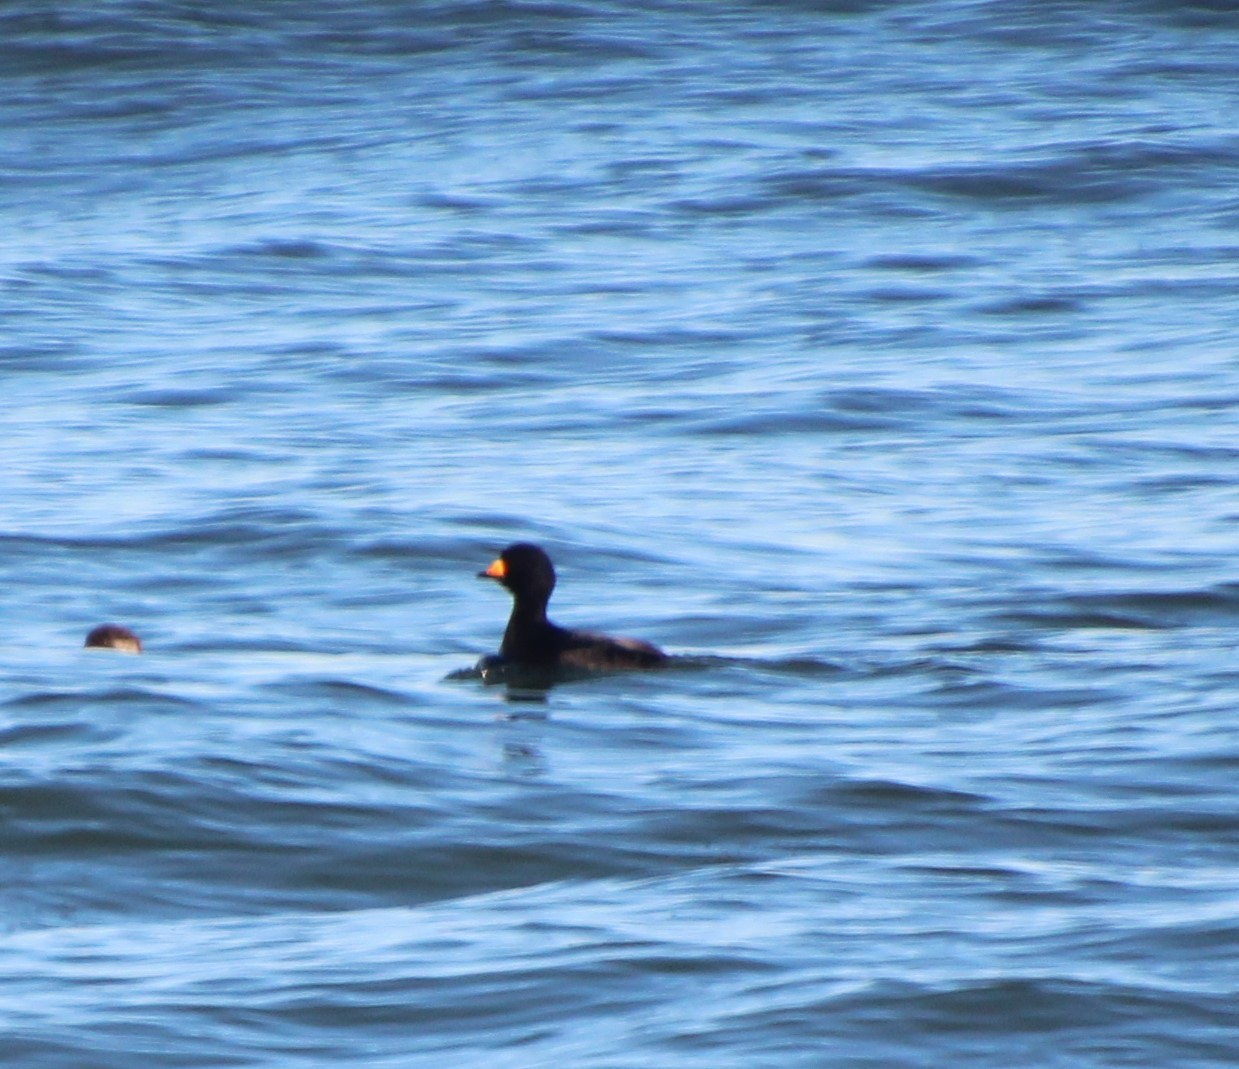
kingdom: Animalia
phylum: Chordata
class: Aves
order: Anseriformes
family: Anatidae
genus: Melanitta
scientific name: Melanitta americana
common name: Black scoter
